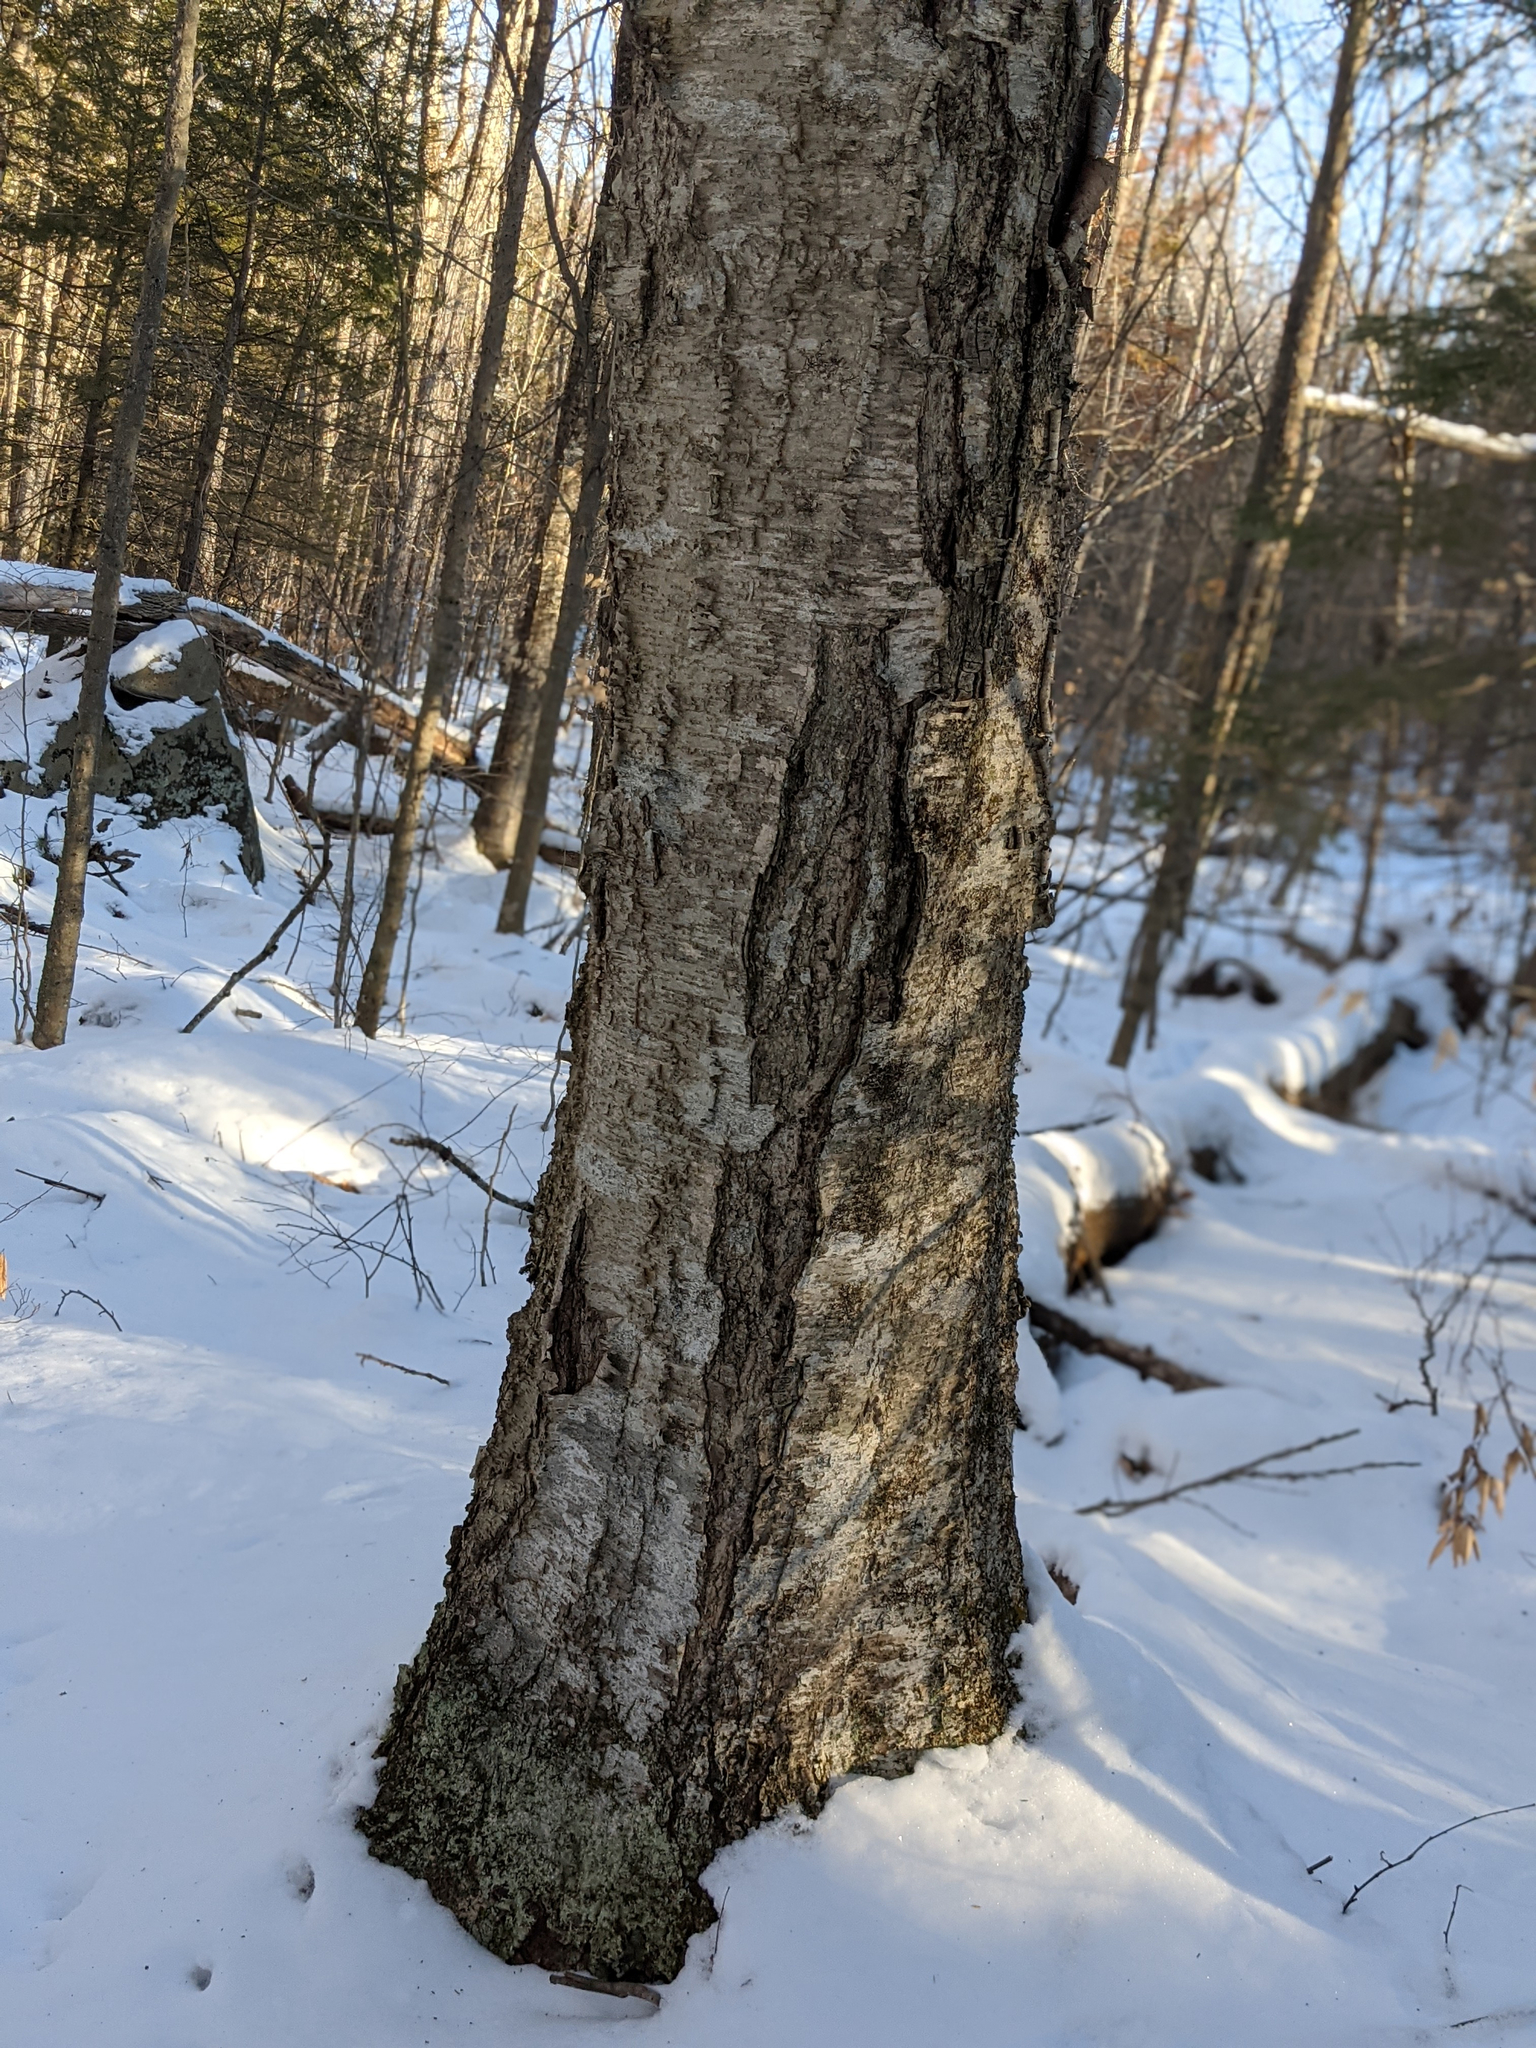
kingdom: Plantae
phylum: Tracheophyta
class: Magnoliopsida
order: Fagales
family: Betulaceae
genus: Betula
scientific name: Betula alleghaniensis
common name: Yellow birch
